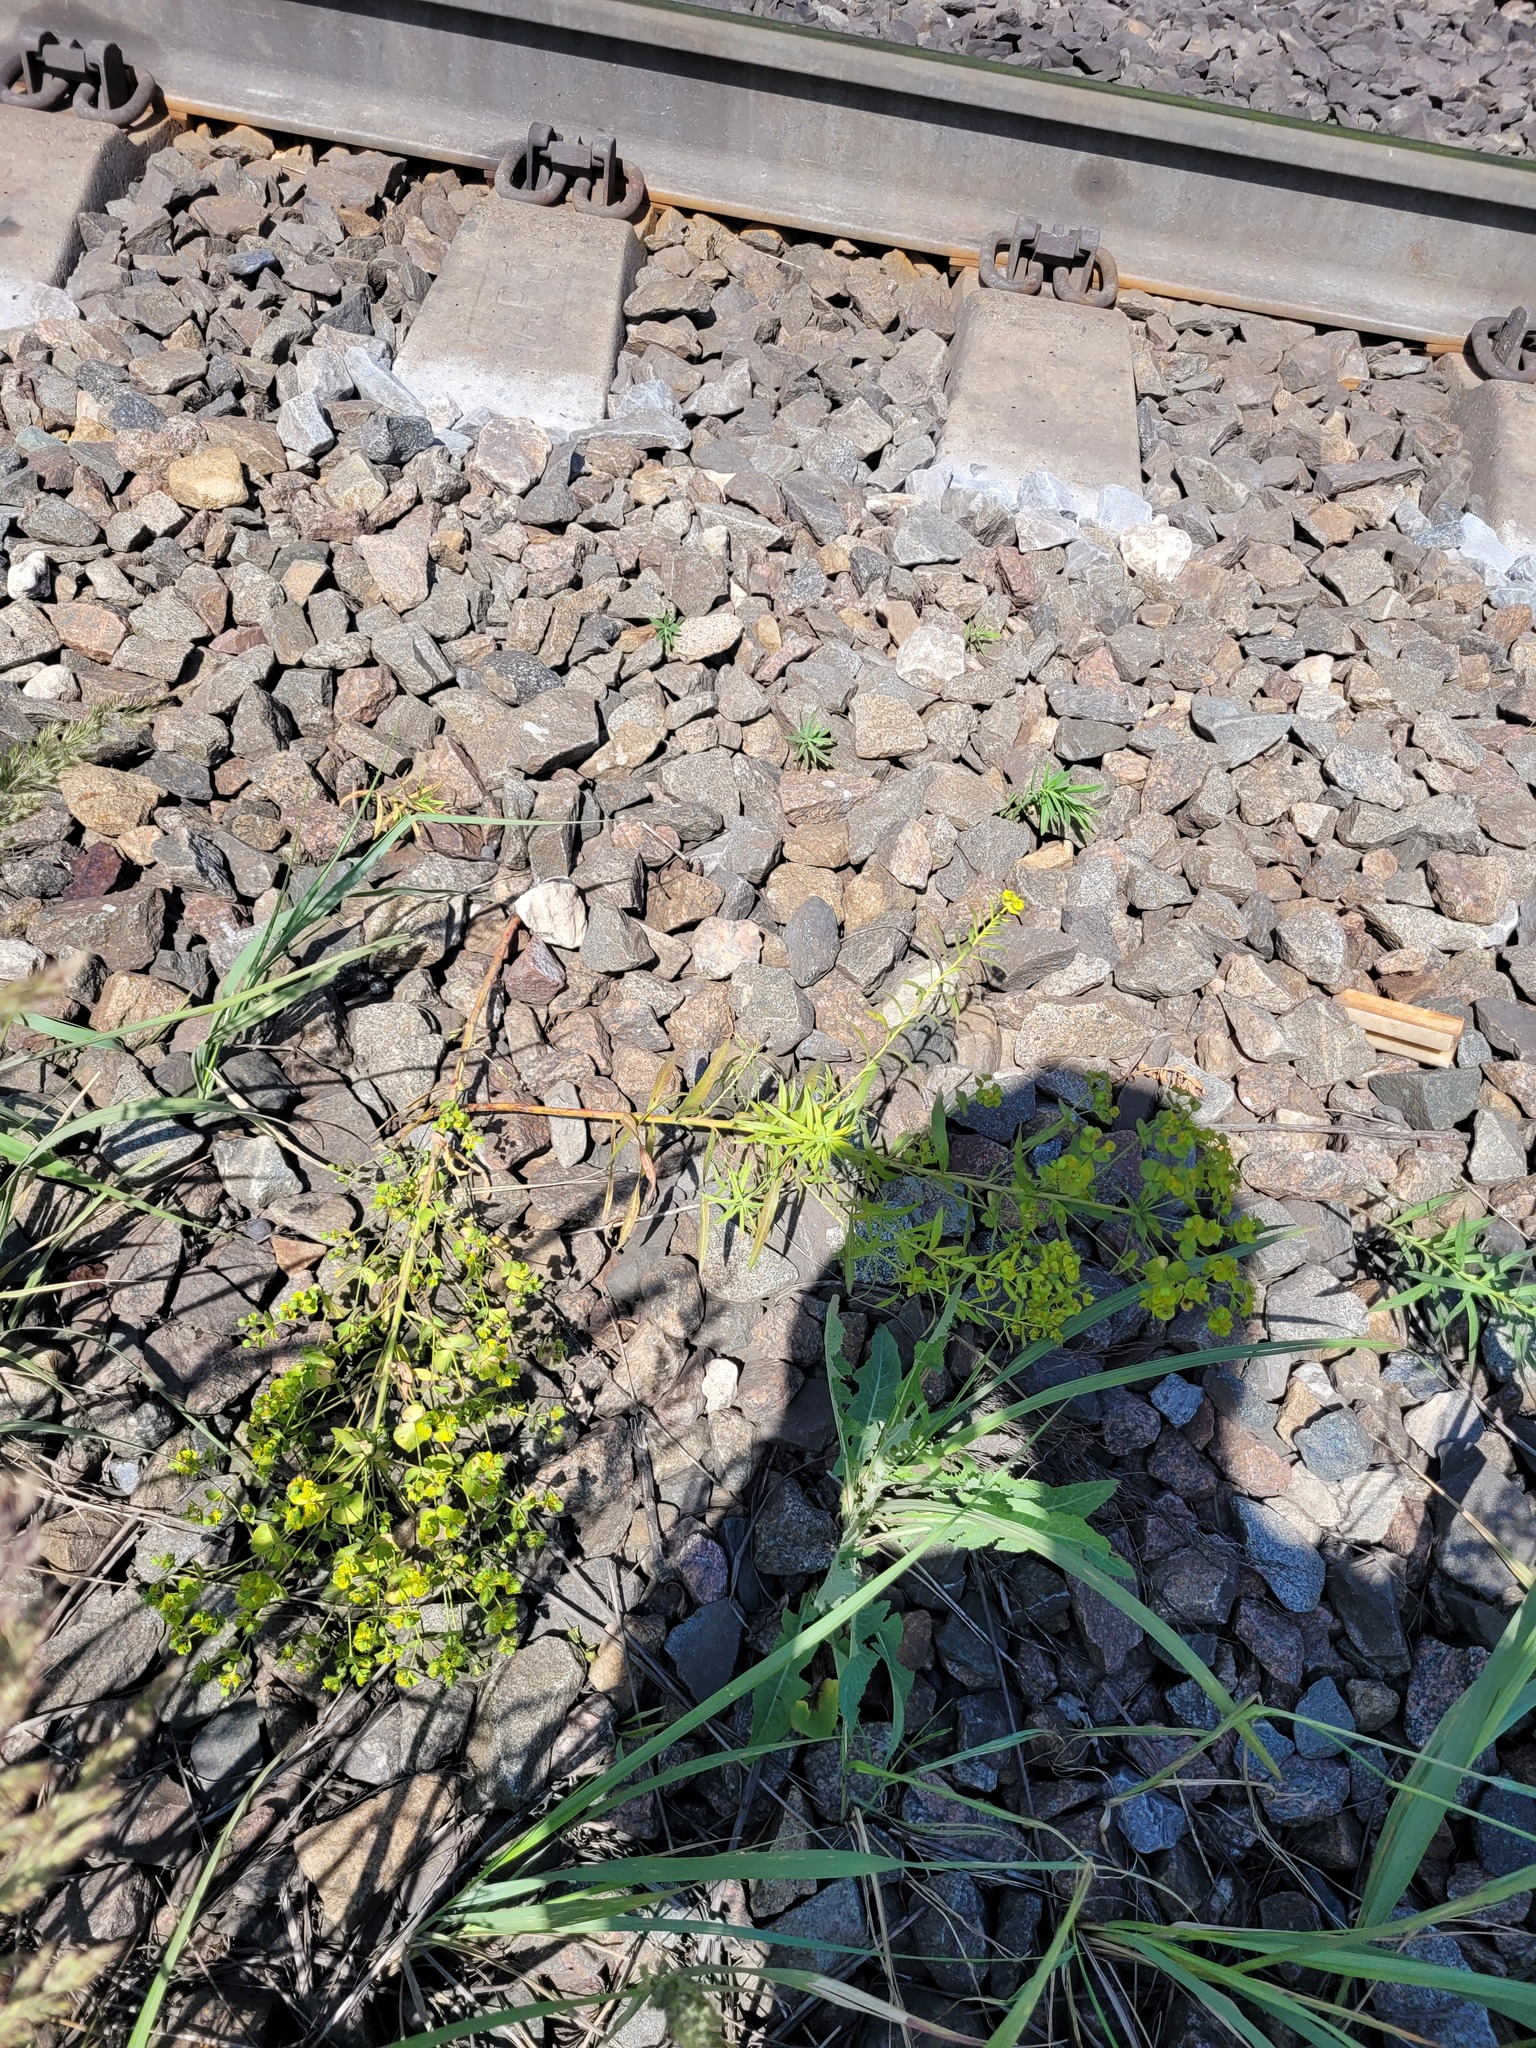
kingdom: Plantae
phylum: Tracheophyta
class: Magnoliopsida
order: Malpighiales
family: Euphorbiaceae
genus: Euphorbia
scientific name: Euphorbia virgata
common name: Leafy spurge
